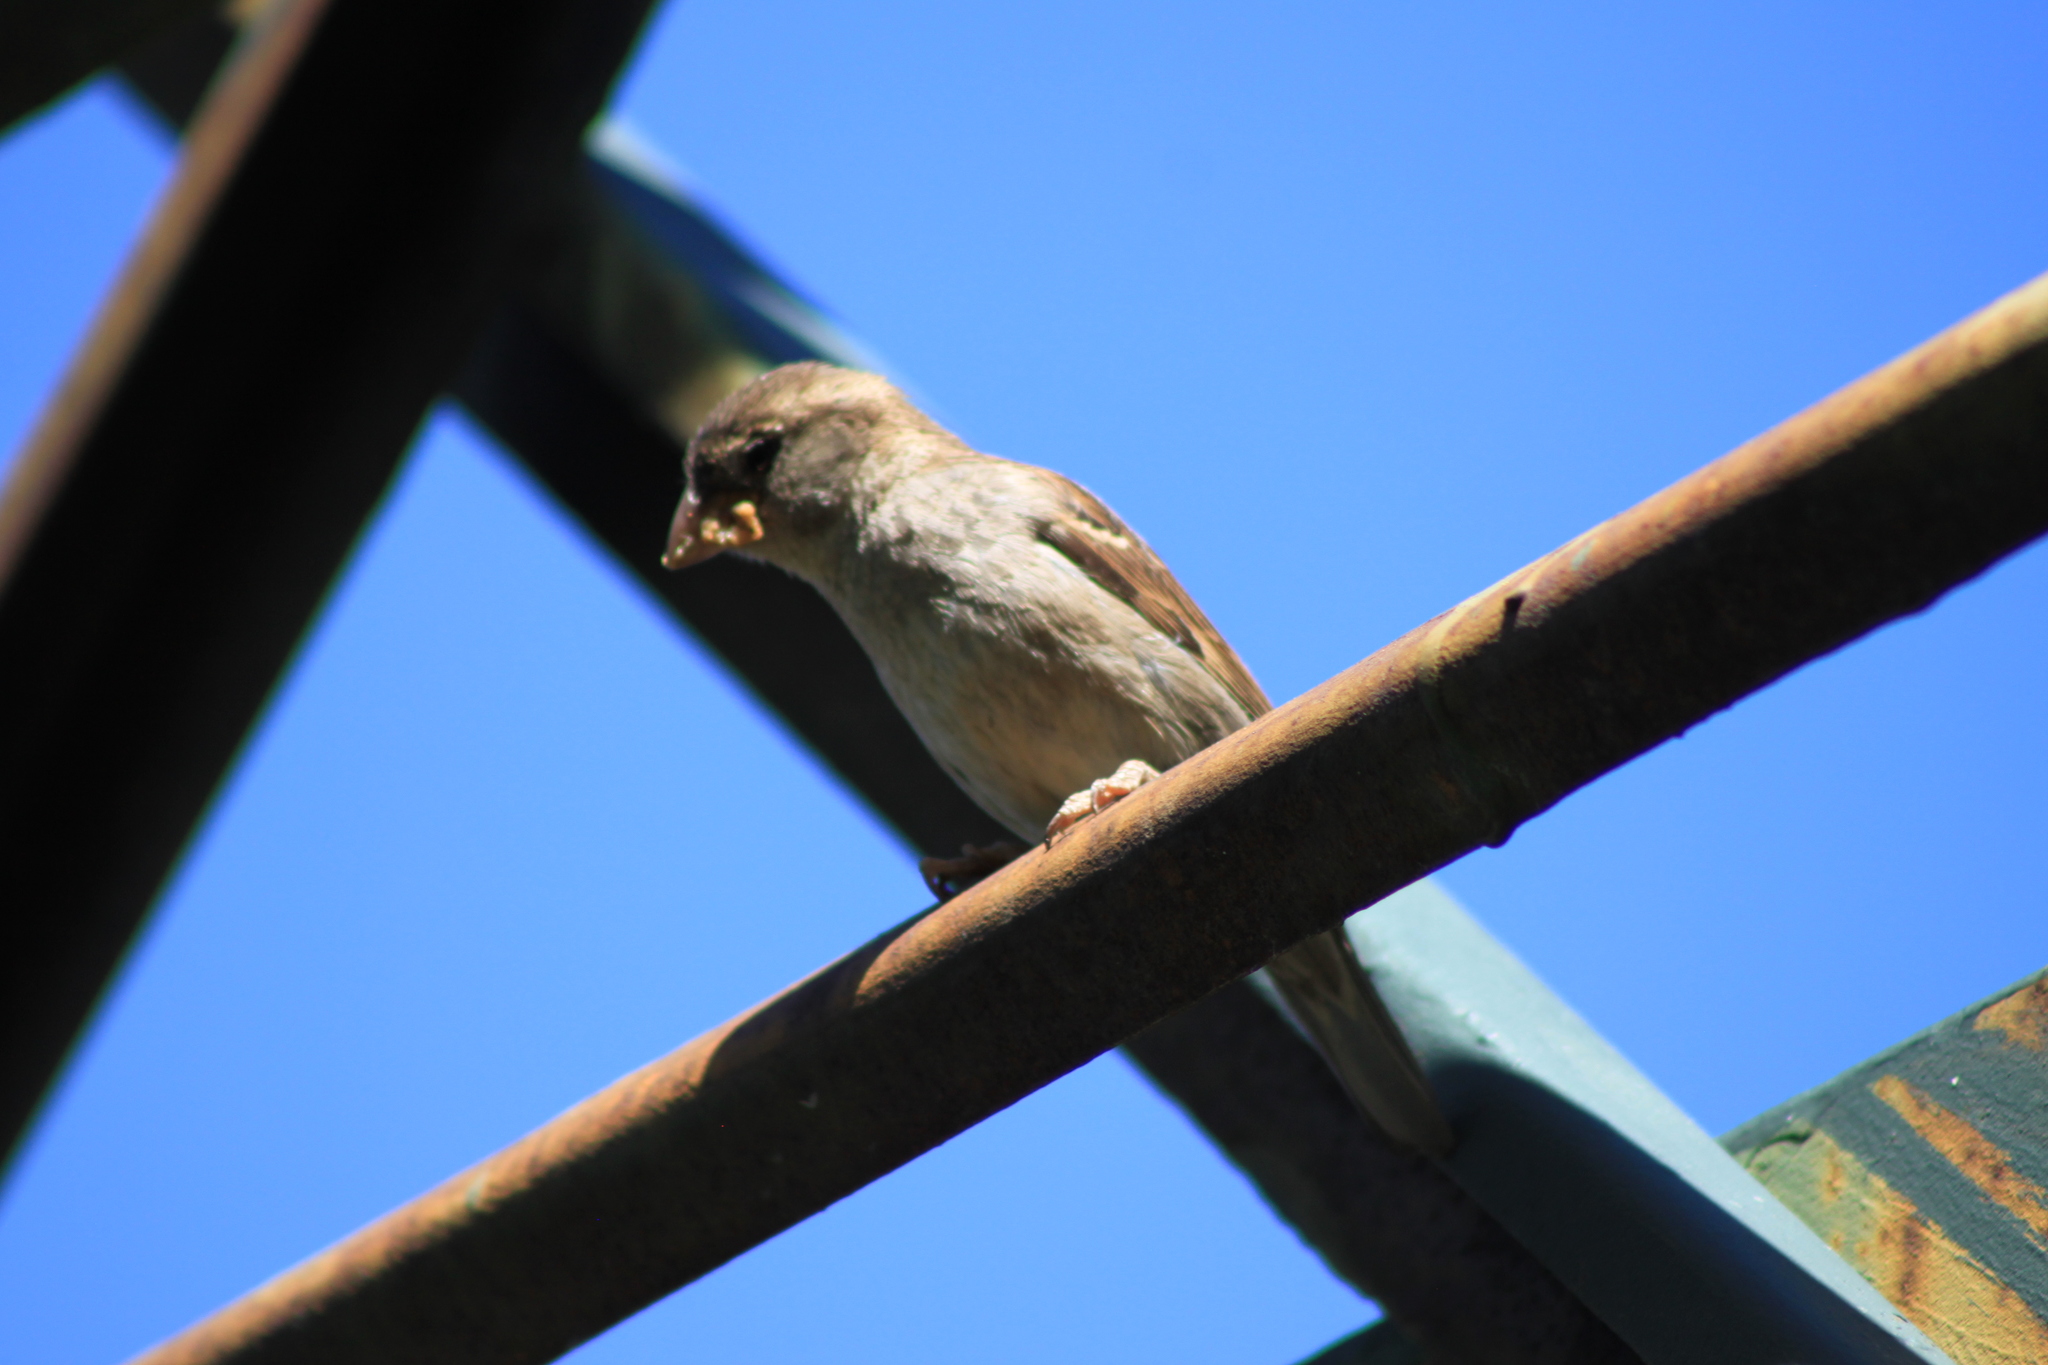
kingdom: Animalia
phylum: Chordata
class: Aves
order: Passeriformes
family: Passeridae
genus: Passer
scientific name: Passer domesticus
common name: House sparrow
